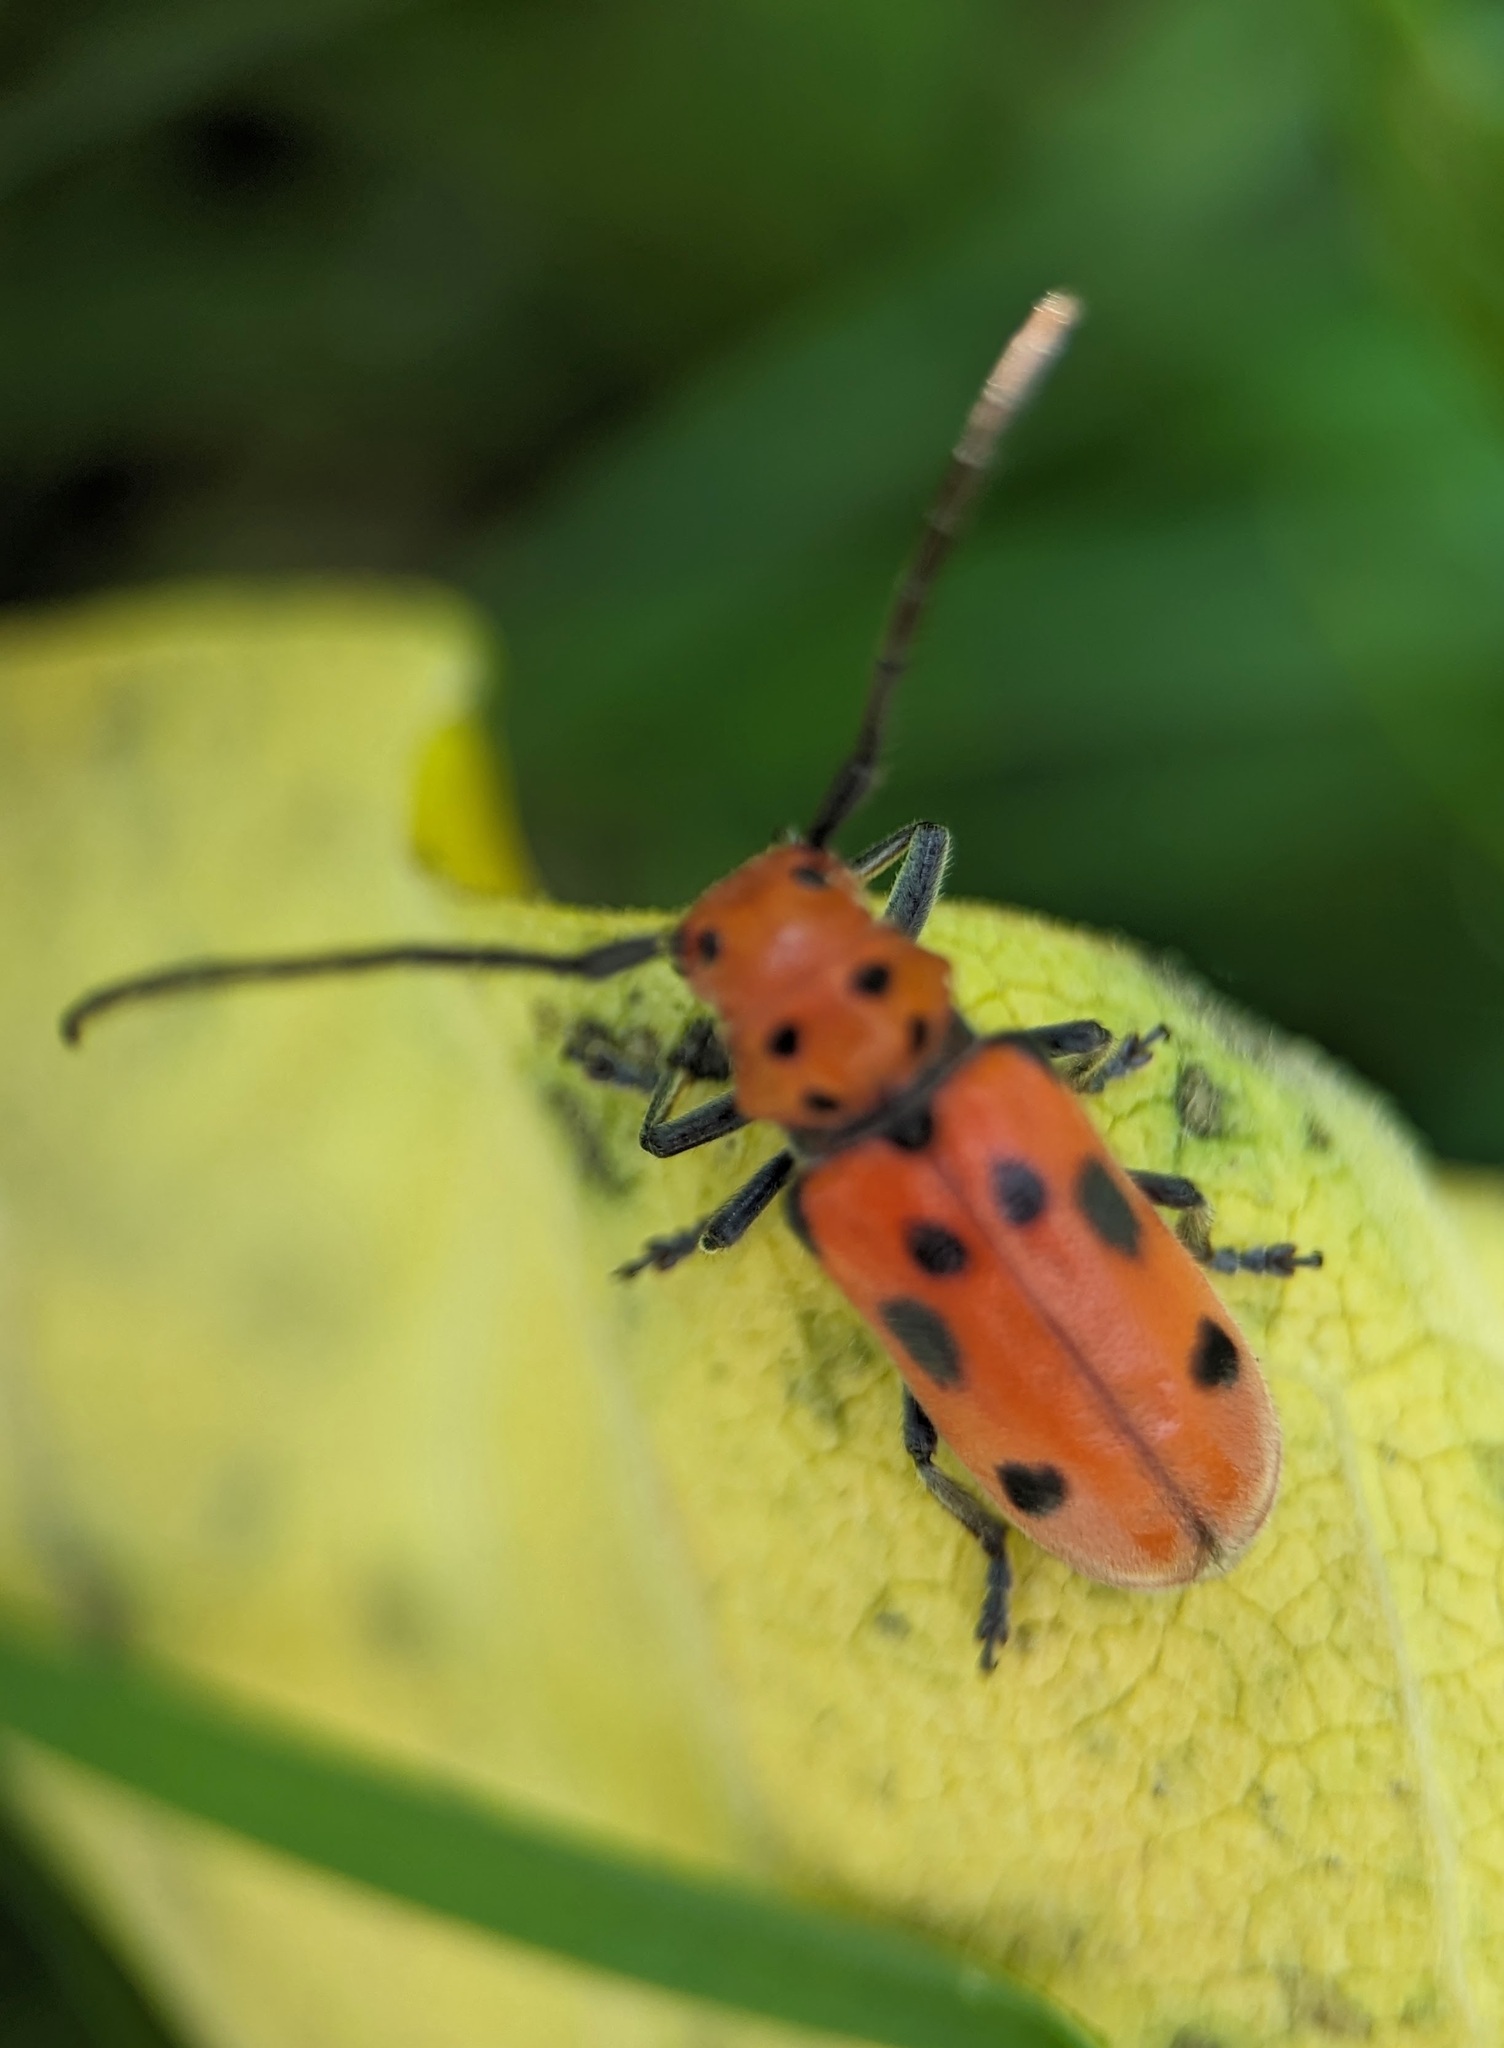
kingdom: Animalia
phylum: Arthropoda
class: Insecta
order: Coleoptera
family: Cerambycidae
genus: Tetraopes
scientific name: Tetraopes tetrophthalmus
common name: Red milkweed beetle
